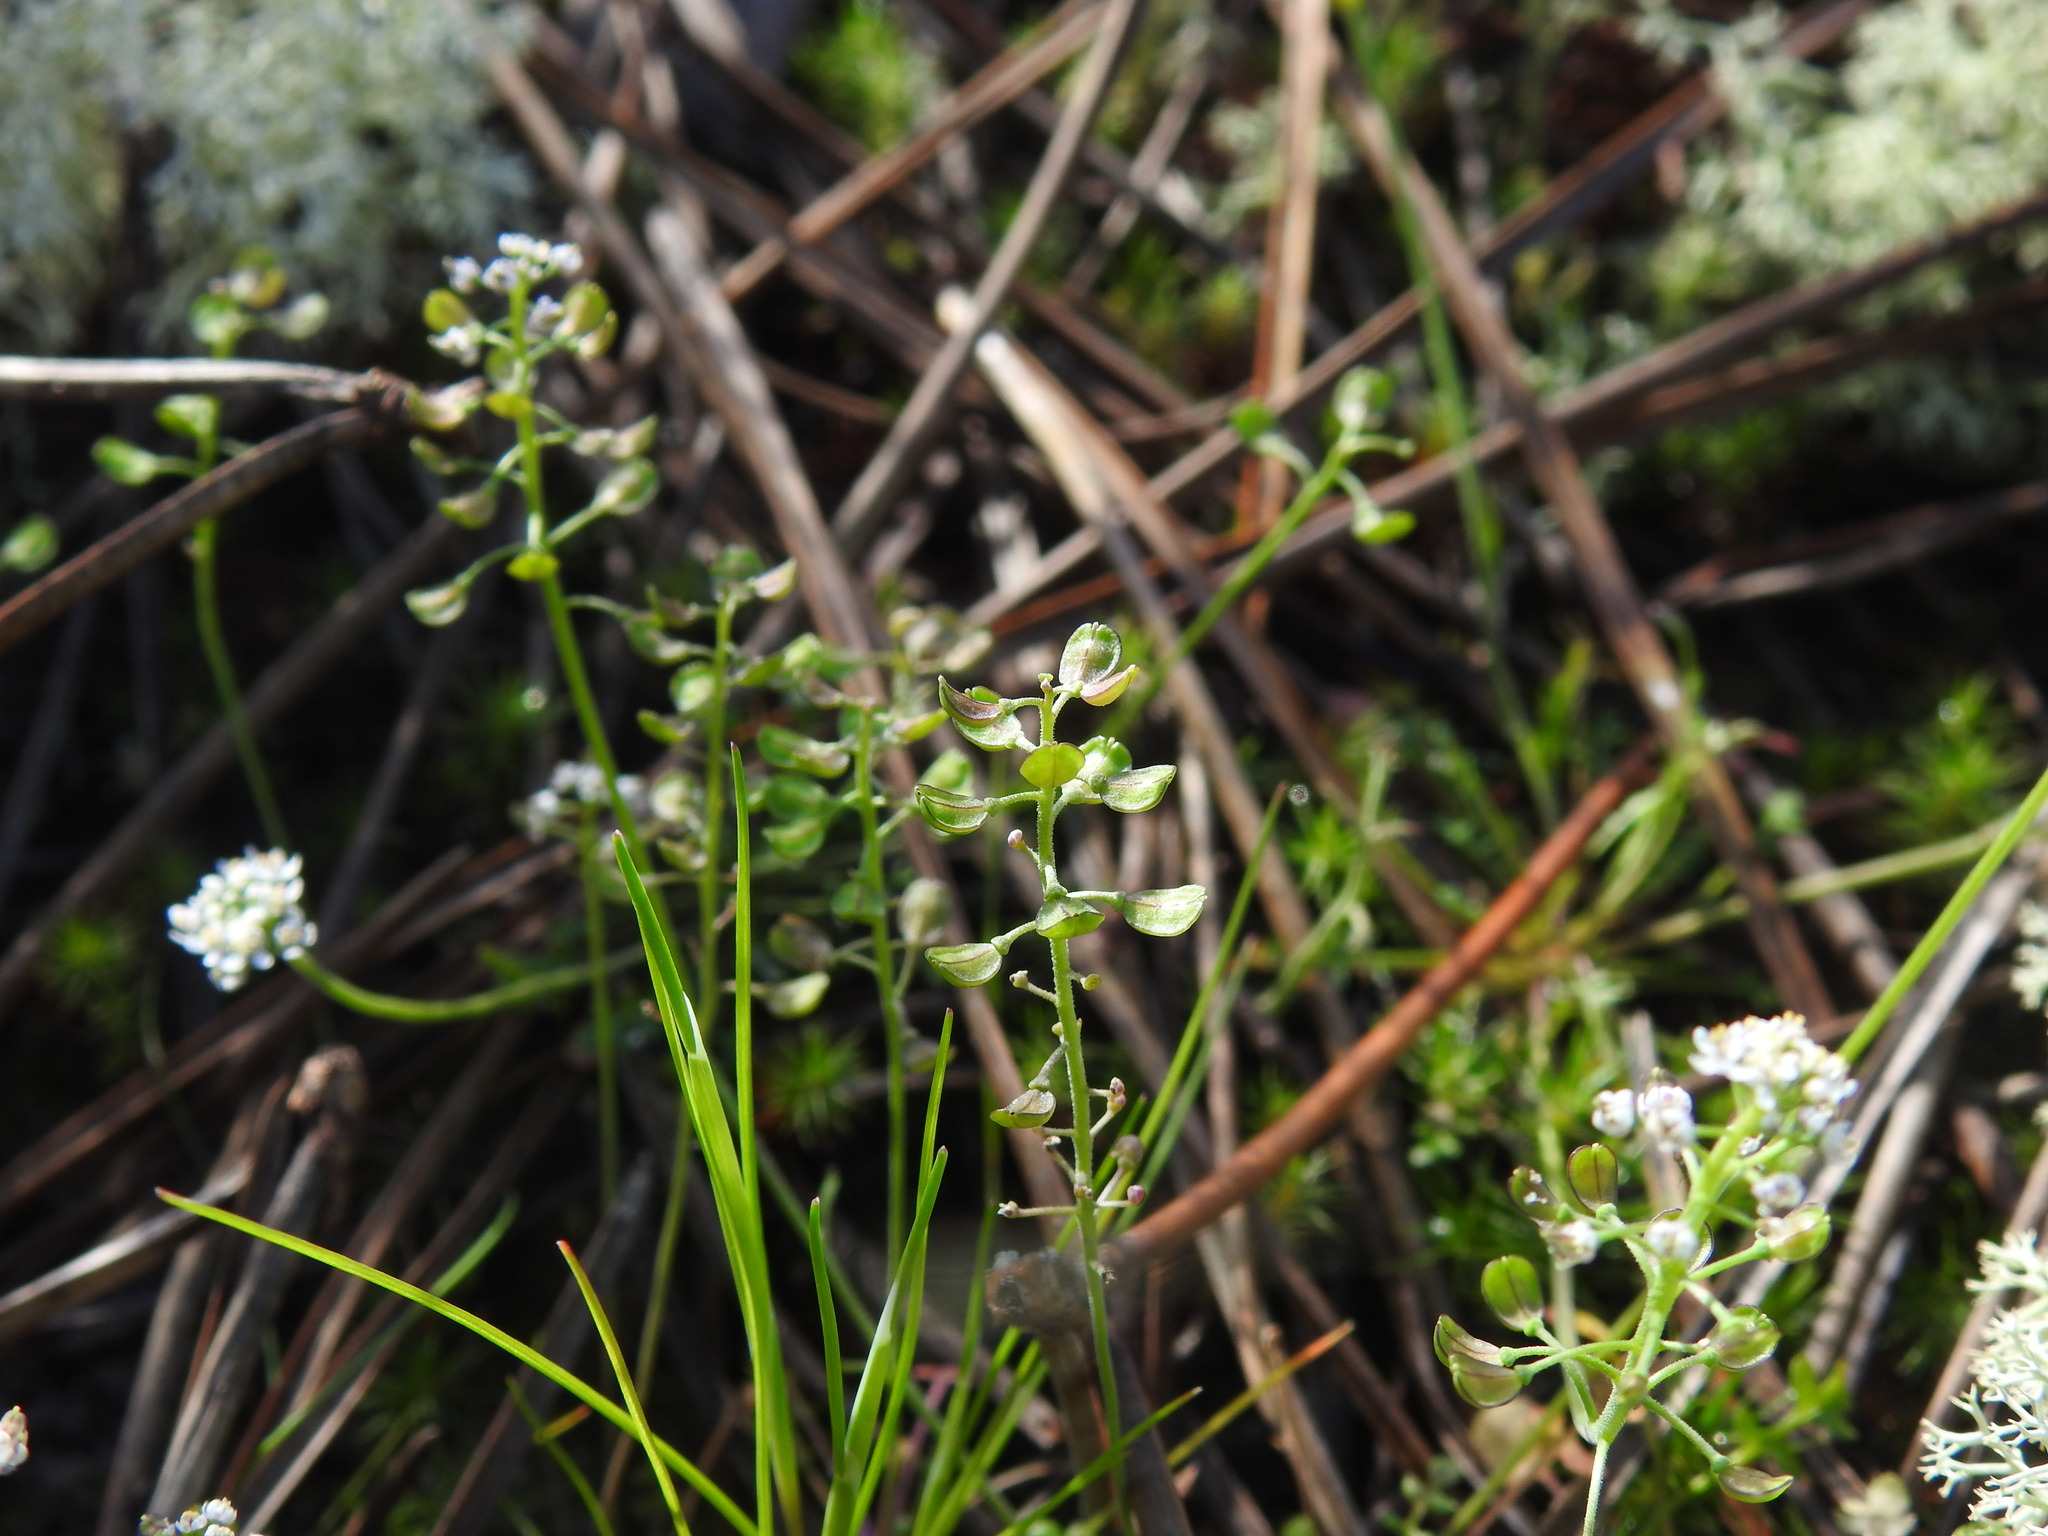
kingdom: Plantae
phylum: Tracheophyta
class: Magnoliopsida
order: Brassicales
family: Brassicaceae
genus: Teesdalia
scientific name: Teesdalia nudicaulis
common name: Shepherd's cress
